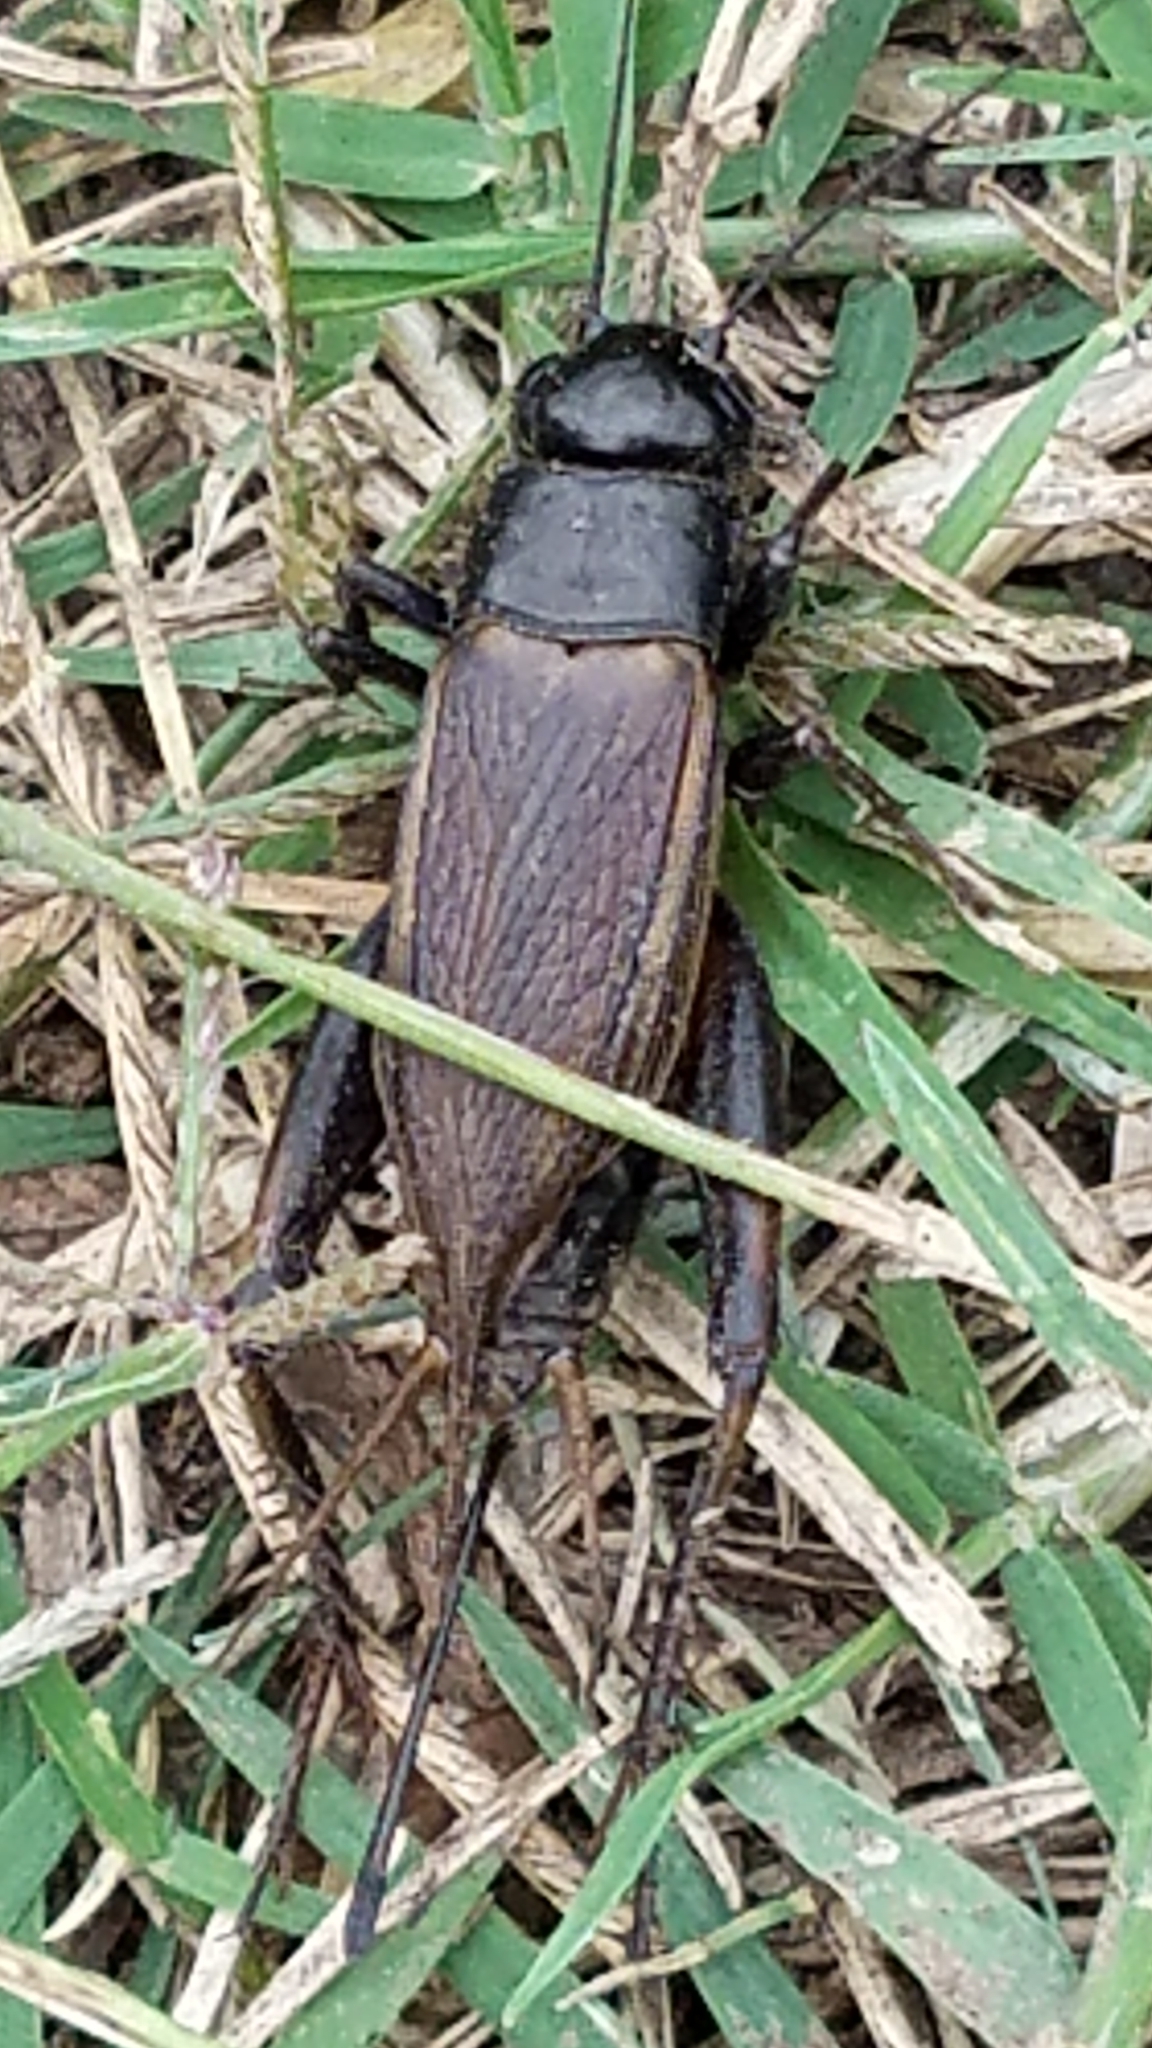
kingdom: Animalia
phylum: Arthropoda
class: Insecta
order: Orthoptera
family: Gryllidae
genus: Gryllus
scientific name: Gryllus pennsylvanicus
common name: Fall field cricket
